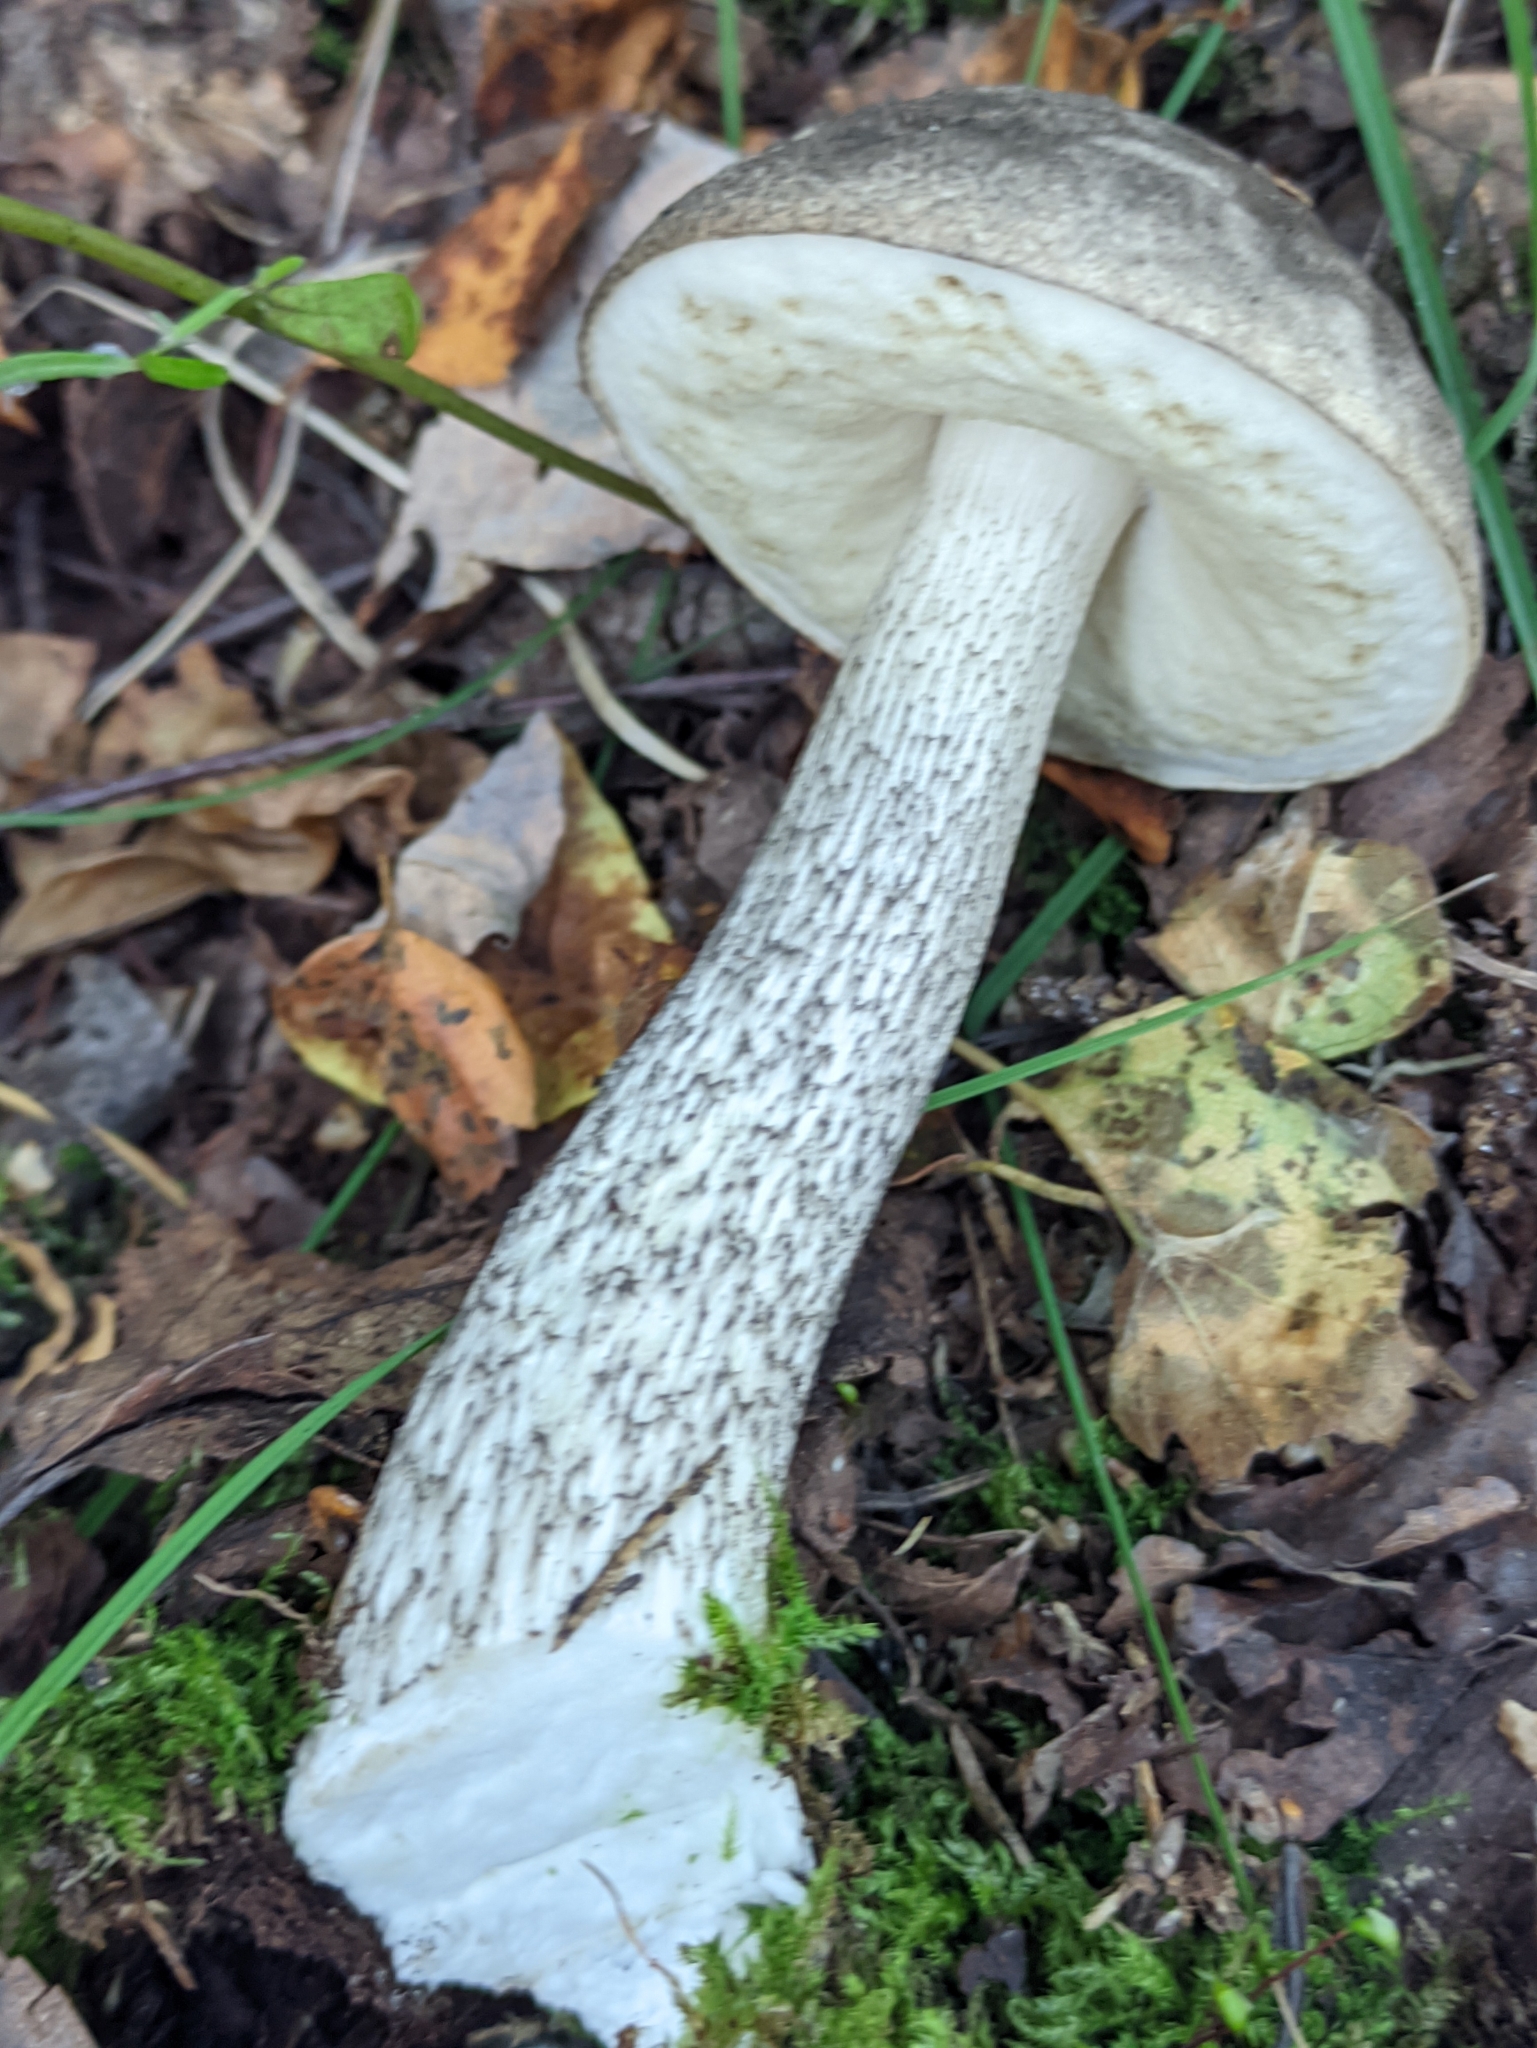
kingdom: Fungi
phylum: Basidiomycota
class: Agaricomycetes
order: Boletales
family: Boletaceae
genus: Leccinum
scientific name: Leccinum variicolor
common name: Mottled bolete
